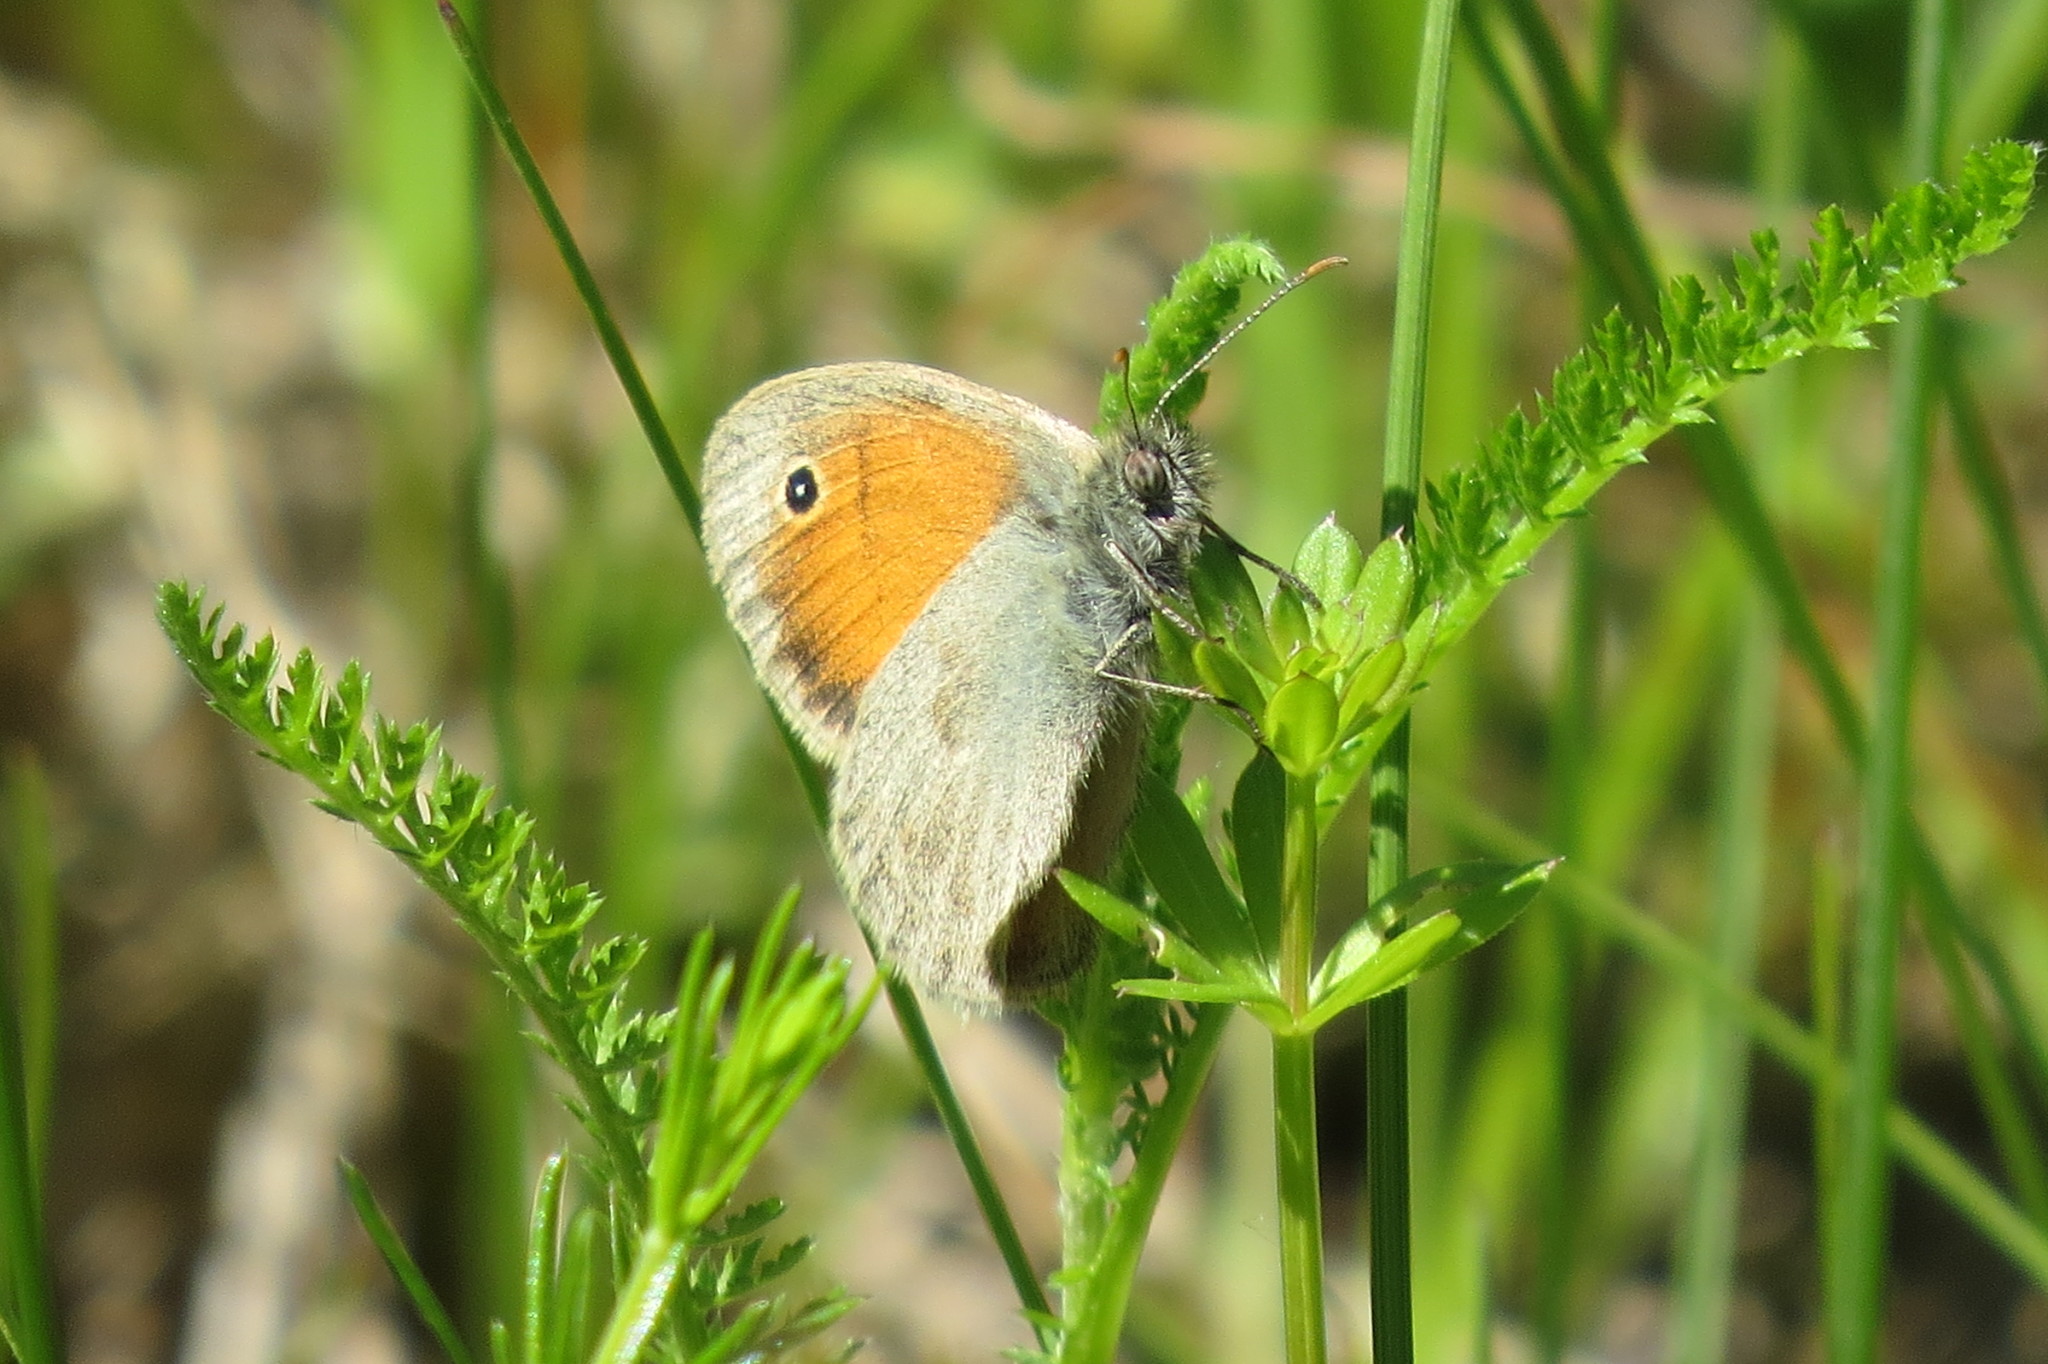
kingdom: Animalia
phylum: Arthropoda
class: Insecta
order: Lepidoptera
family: Nymphalidae
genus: Coenonympha
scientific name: Coenonympha pamphilus
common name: Small heath
